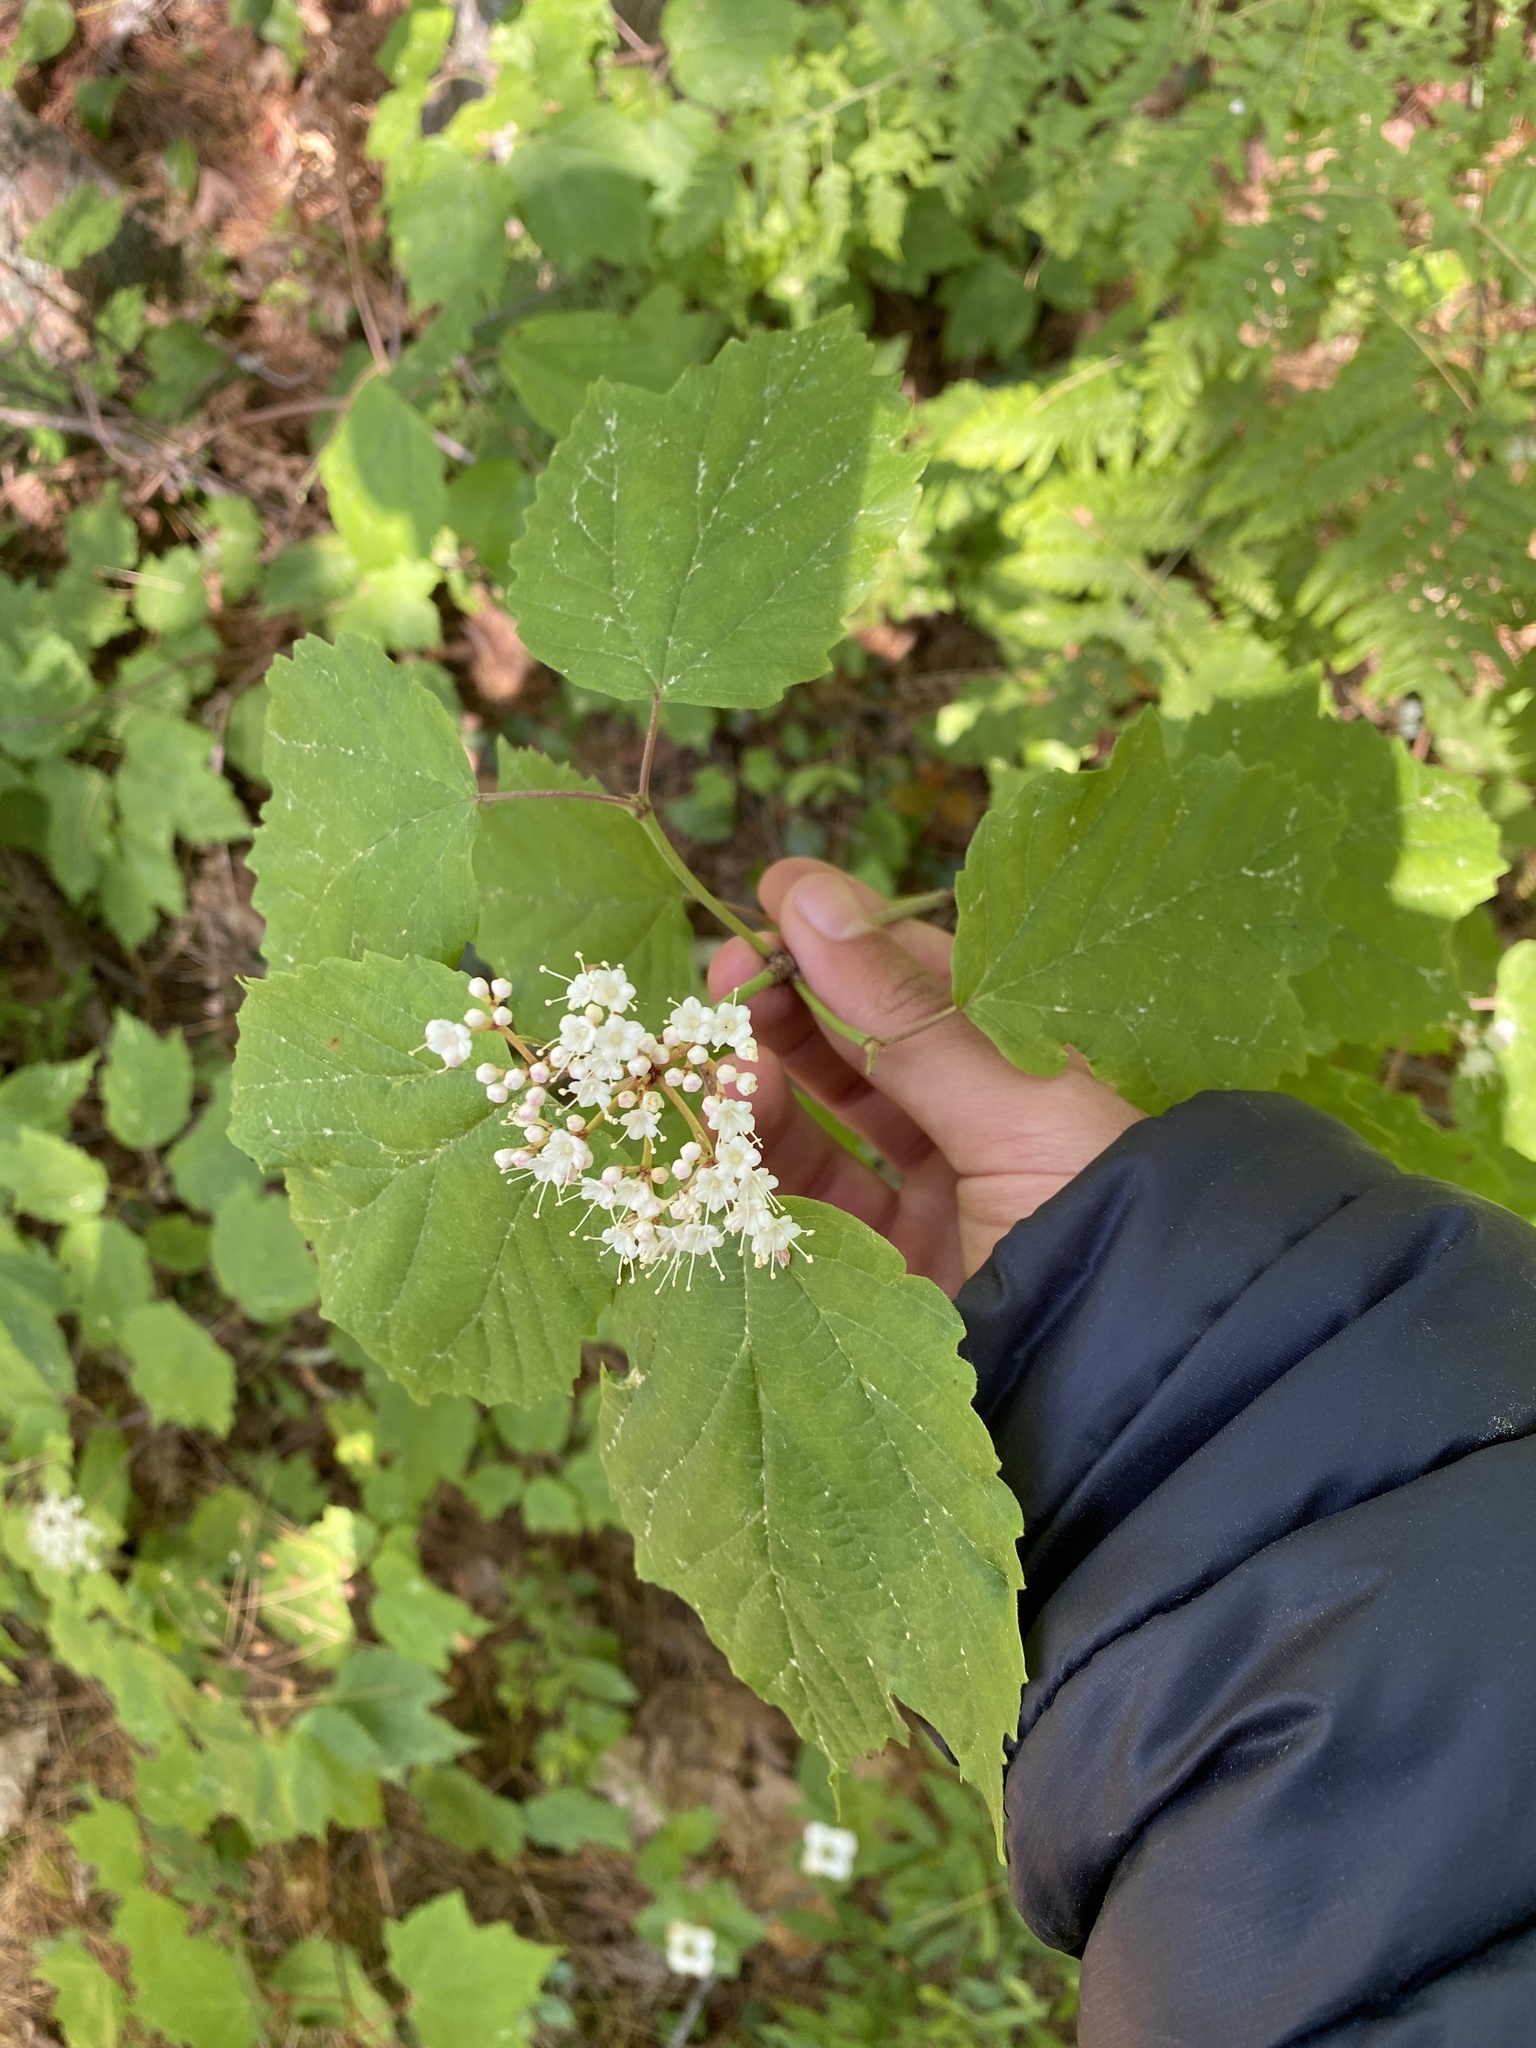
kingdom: Plantae
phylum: Tracheophyta
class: Magnoliopsida
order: Dipsacales
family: Viburnaceae
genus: Viburnum
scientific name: Viburnum acerifolium
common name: Dockmackie
